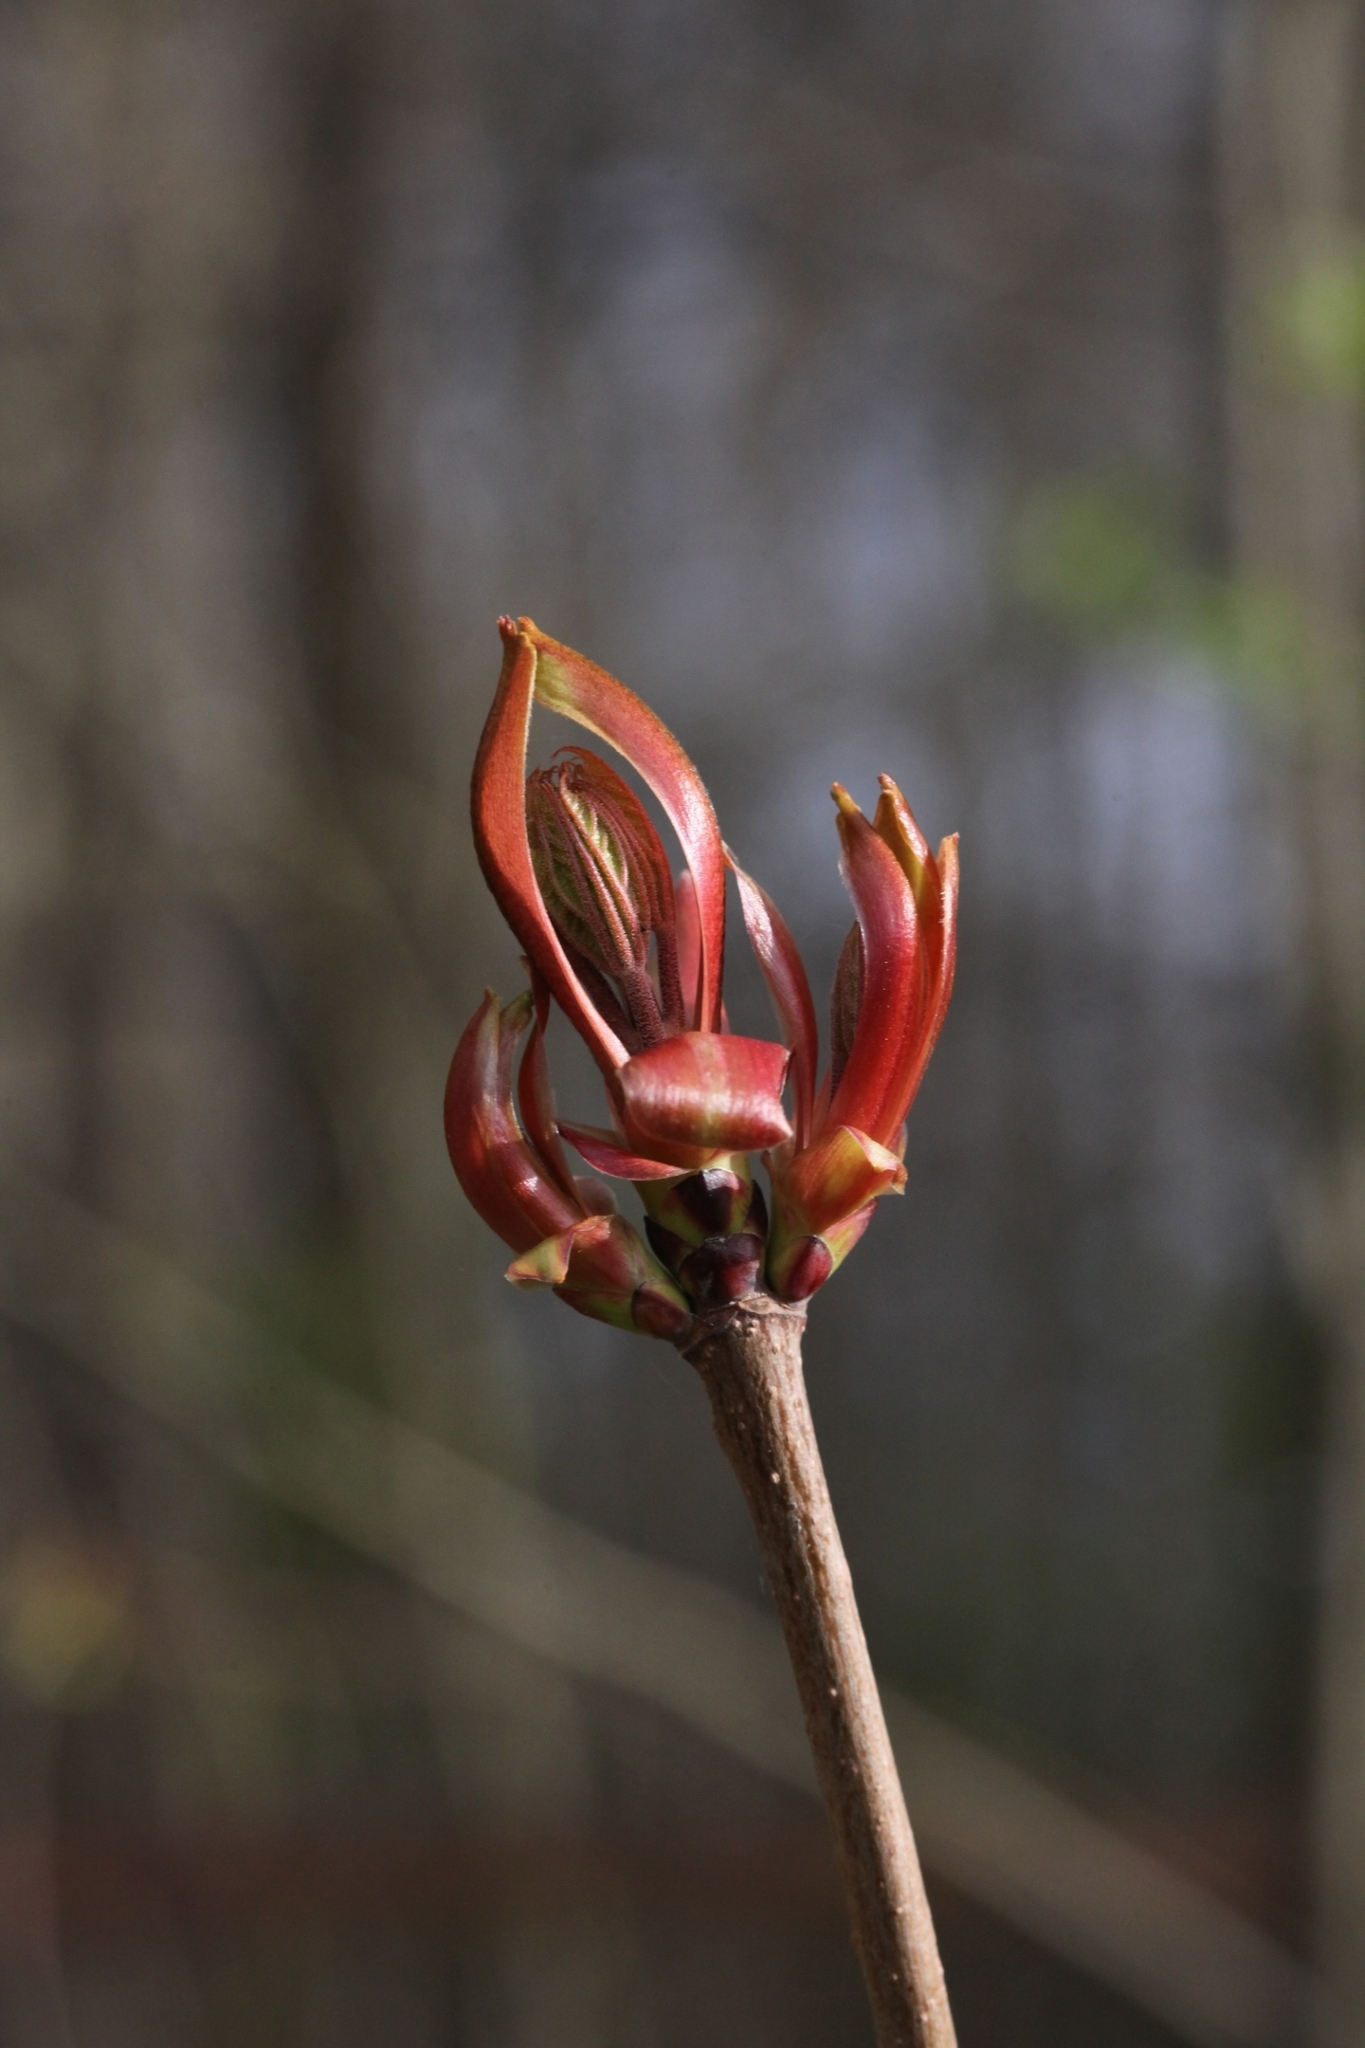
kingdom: Plantae
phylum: Tracheophyta
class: Magnoliopsida
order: Sapindales
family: Sapindaceae
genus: Acer
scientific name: Acer platanoides
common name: Norway maple
